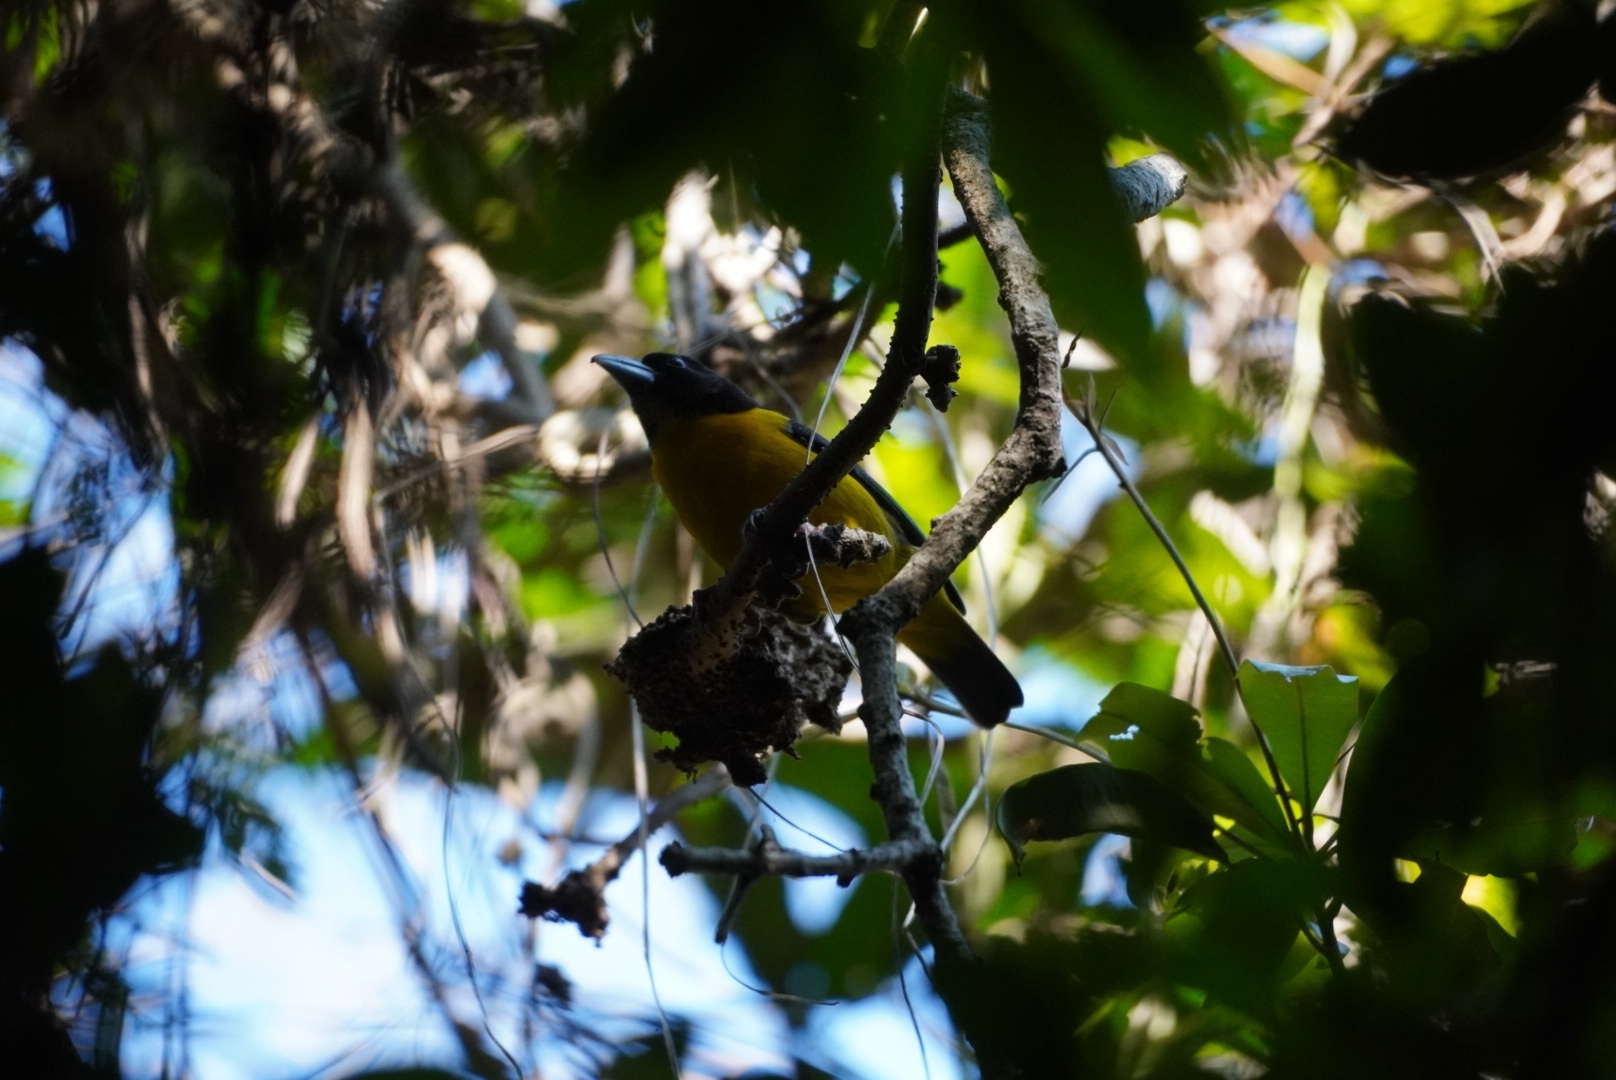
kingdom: Animalia
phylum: Chordata
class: Aves
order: Passeriformes
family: Ploceidae
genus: Ploceus
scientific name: Ploceus bicolor
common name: Dark-backed weaver
